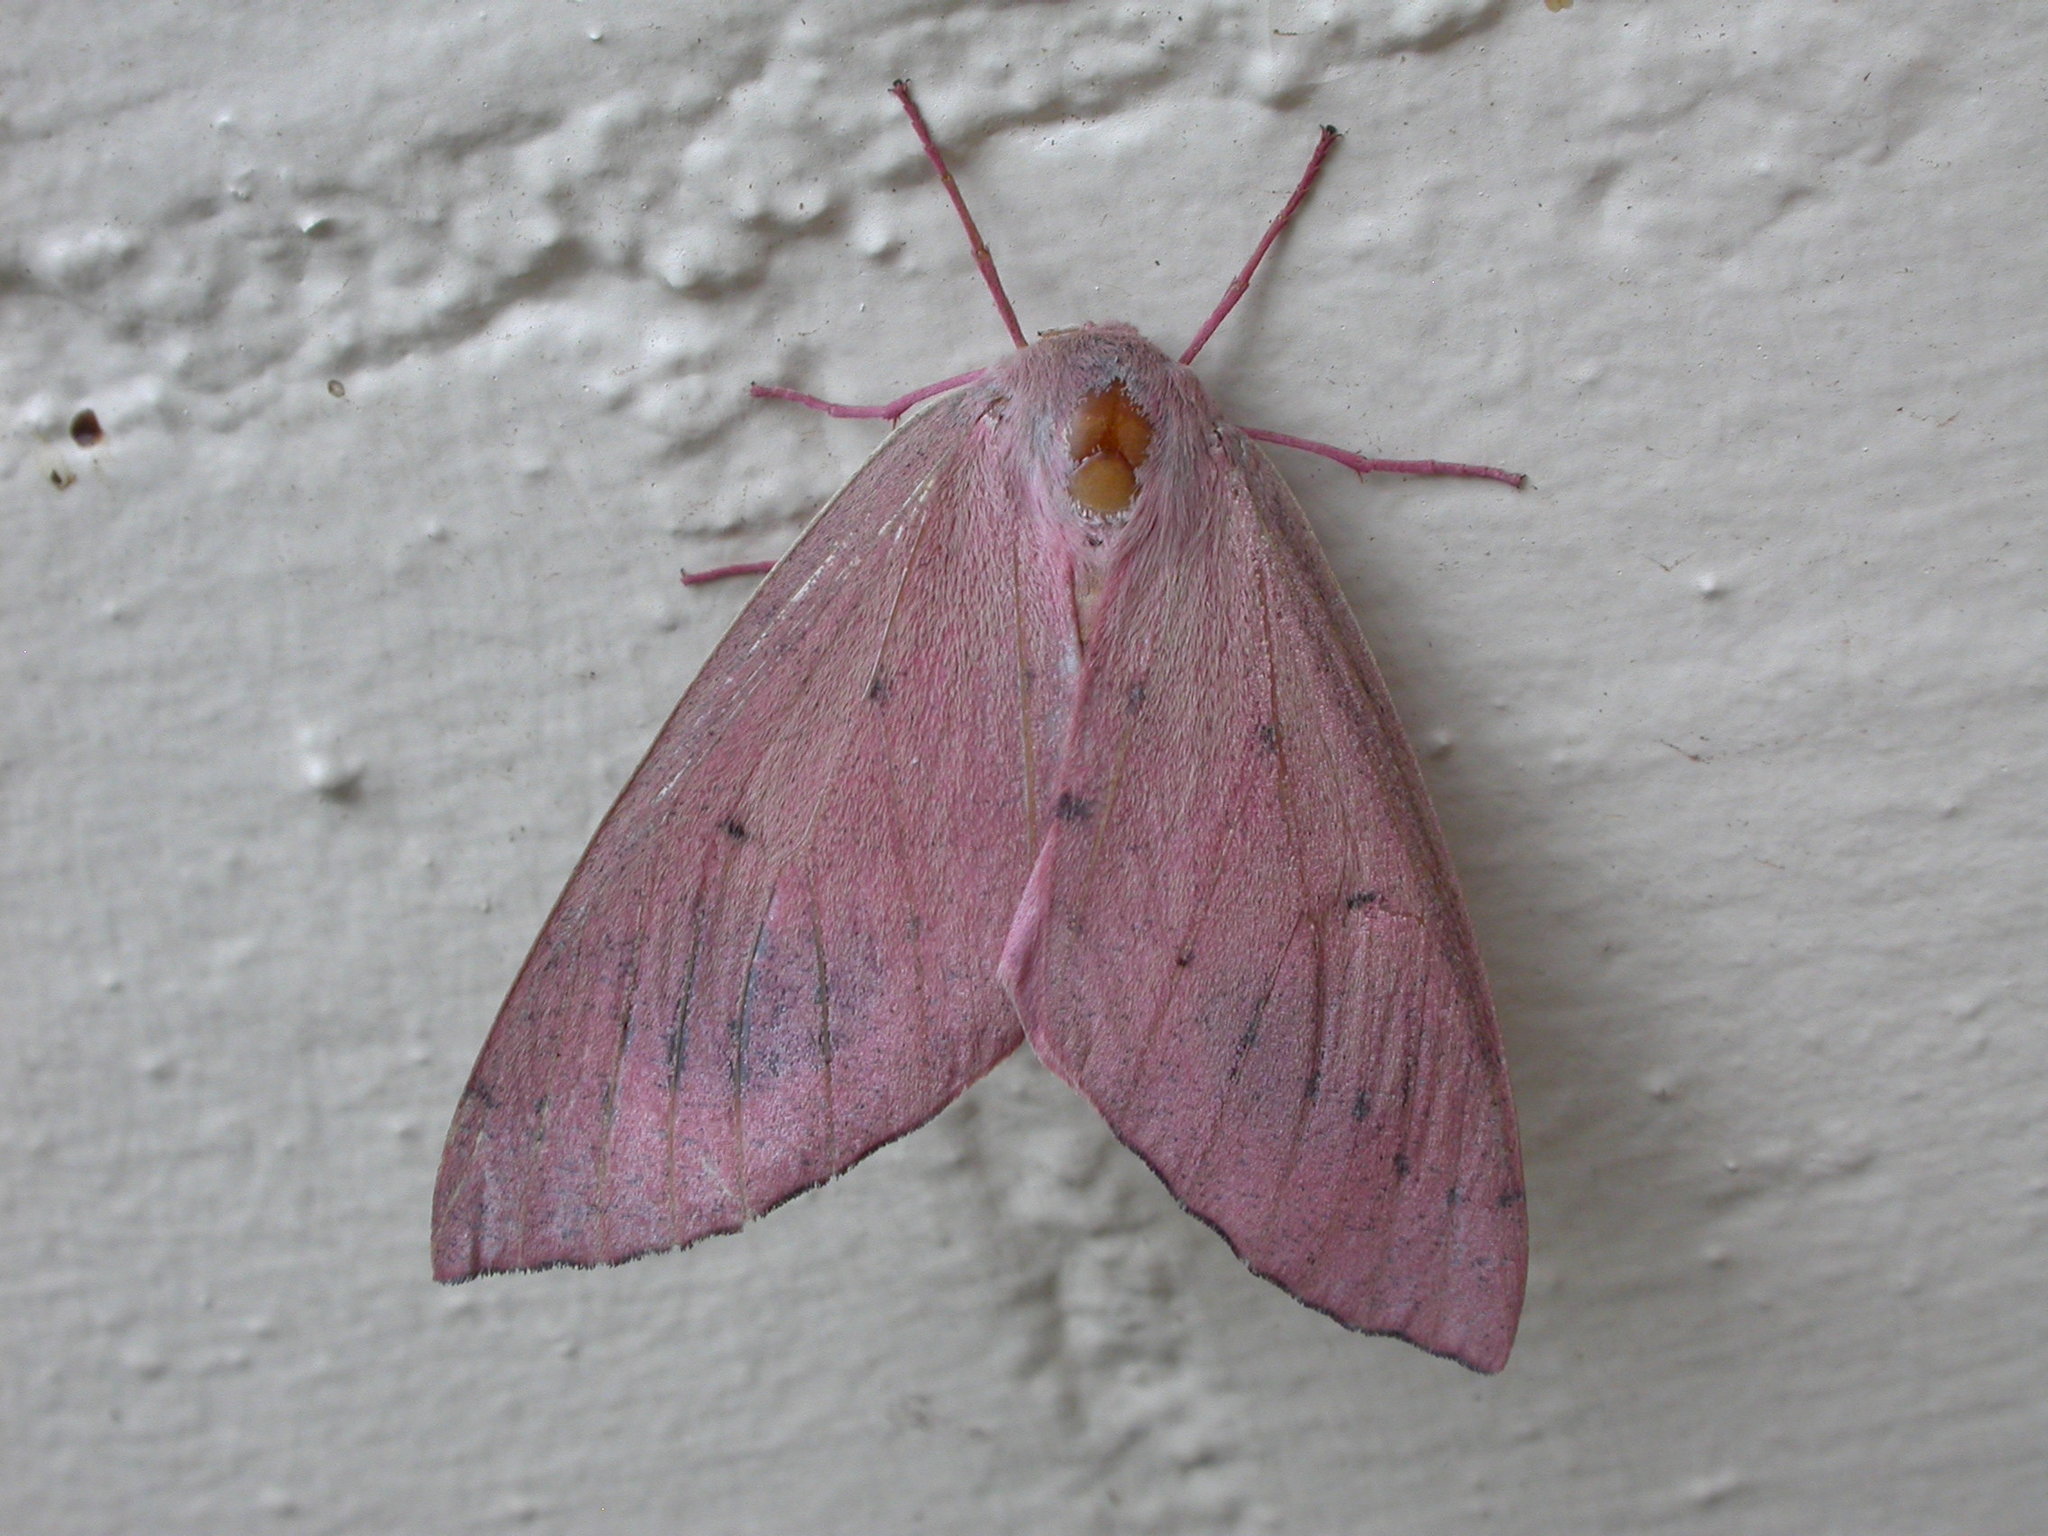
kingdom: Animalia
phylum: Arthropoda
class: Insecta
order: Lepidoptera
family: Geometridae
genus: Arhodia
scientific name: Arhodia lasiocamparia
